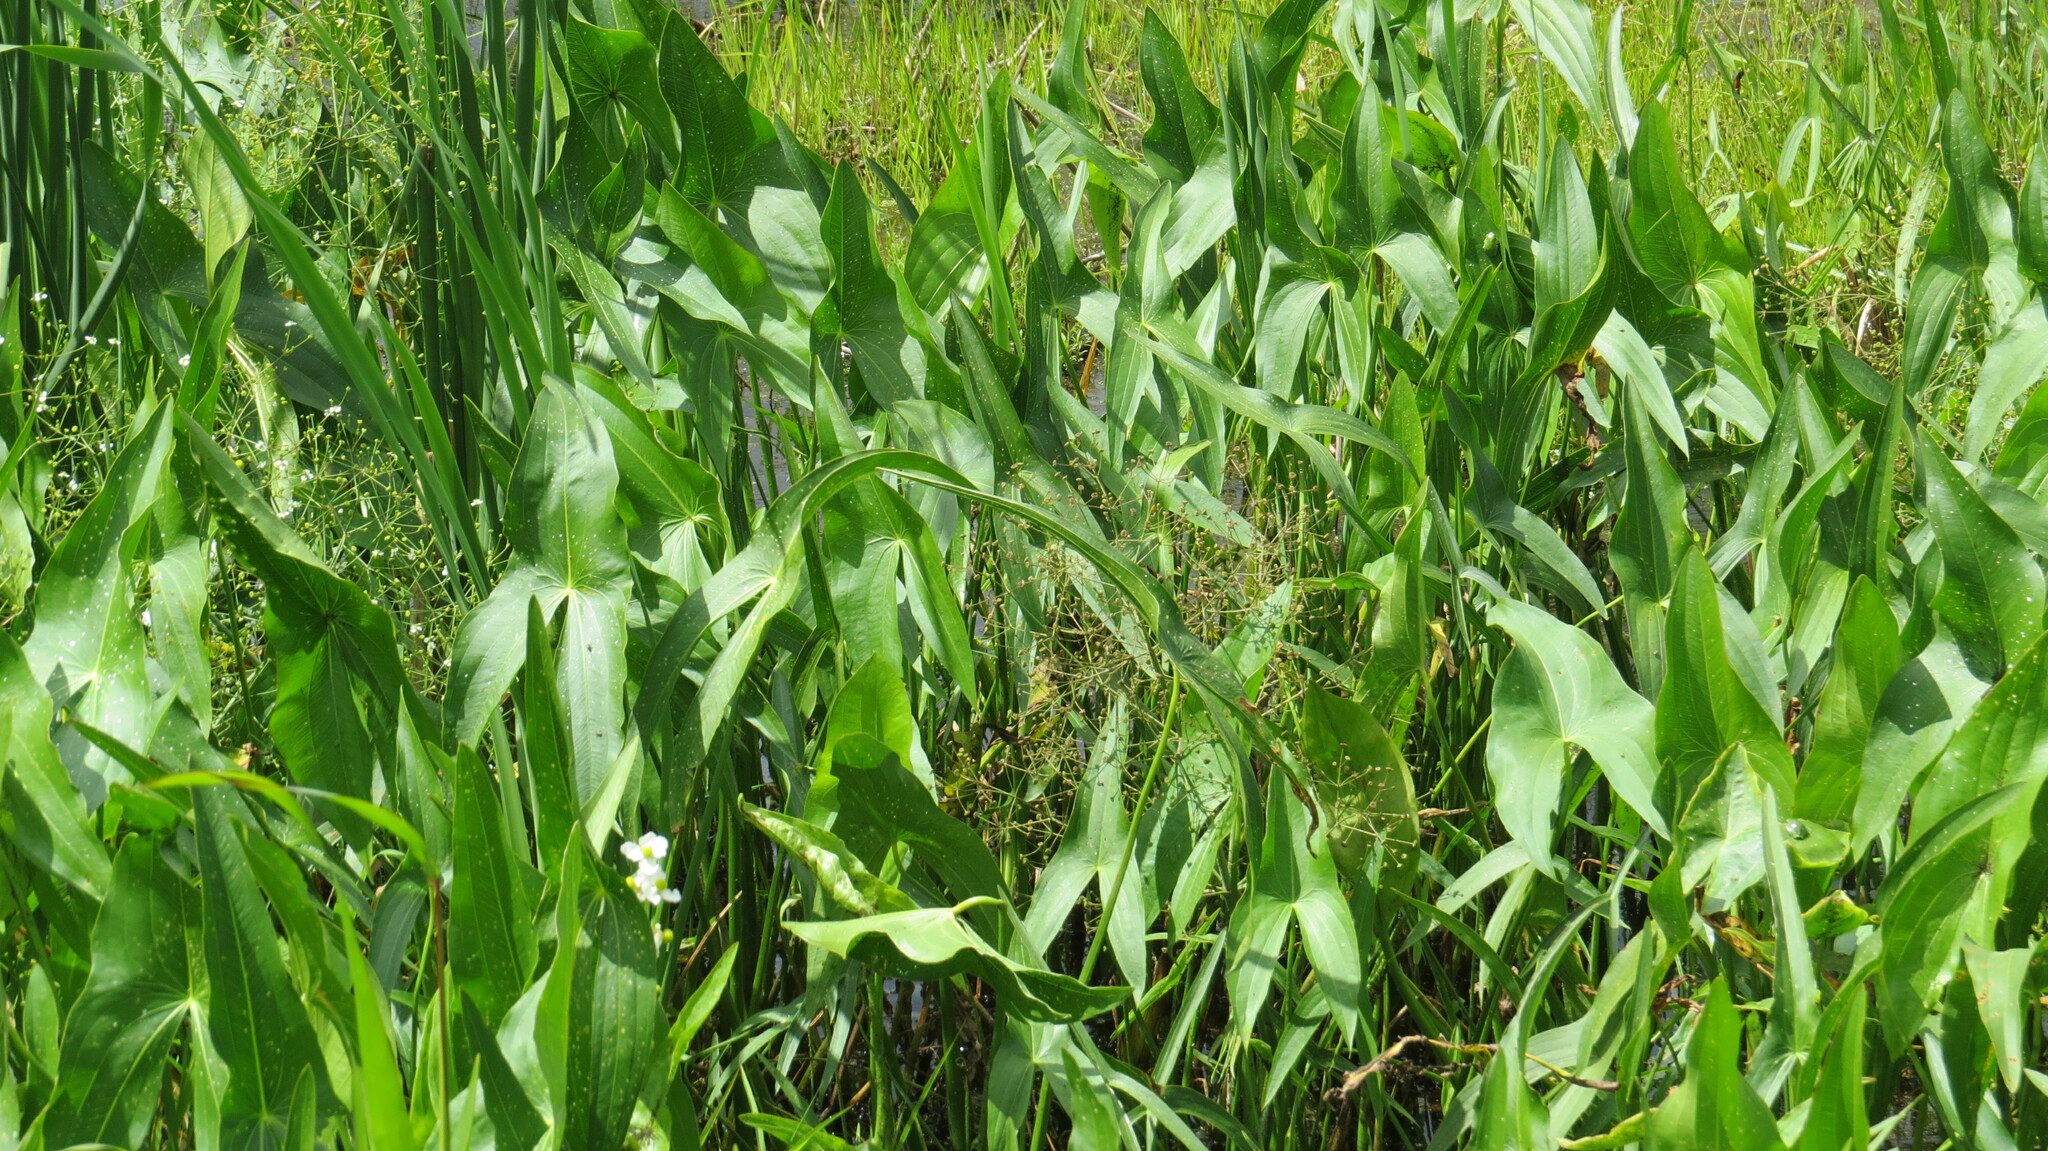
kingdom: Plantae
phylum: Tracheophyta
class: Liliopsida
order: Alismatales
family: Alismataceae
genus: Sagittaria
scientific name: Sagittaria latifolia
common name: Duck-potato
